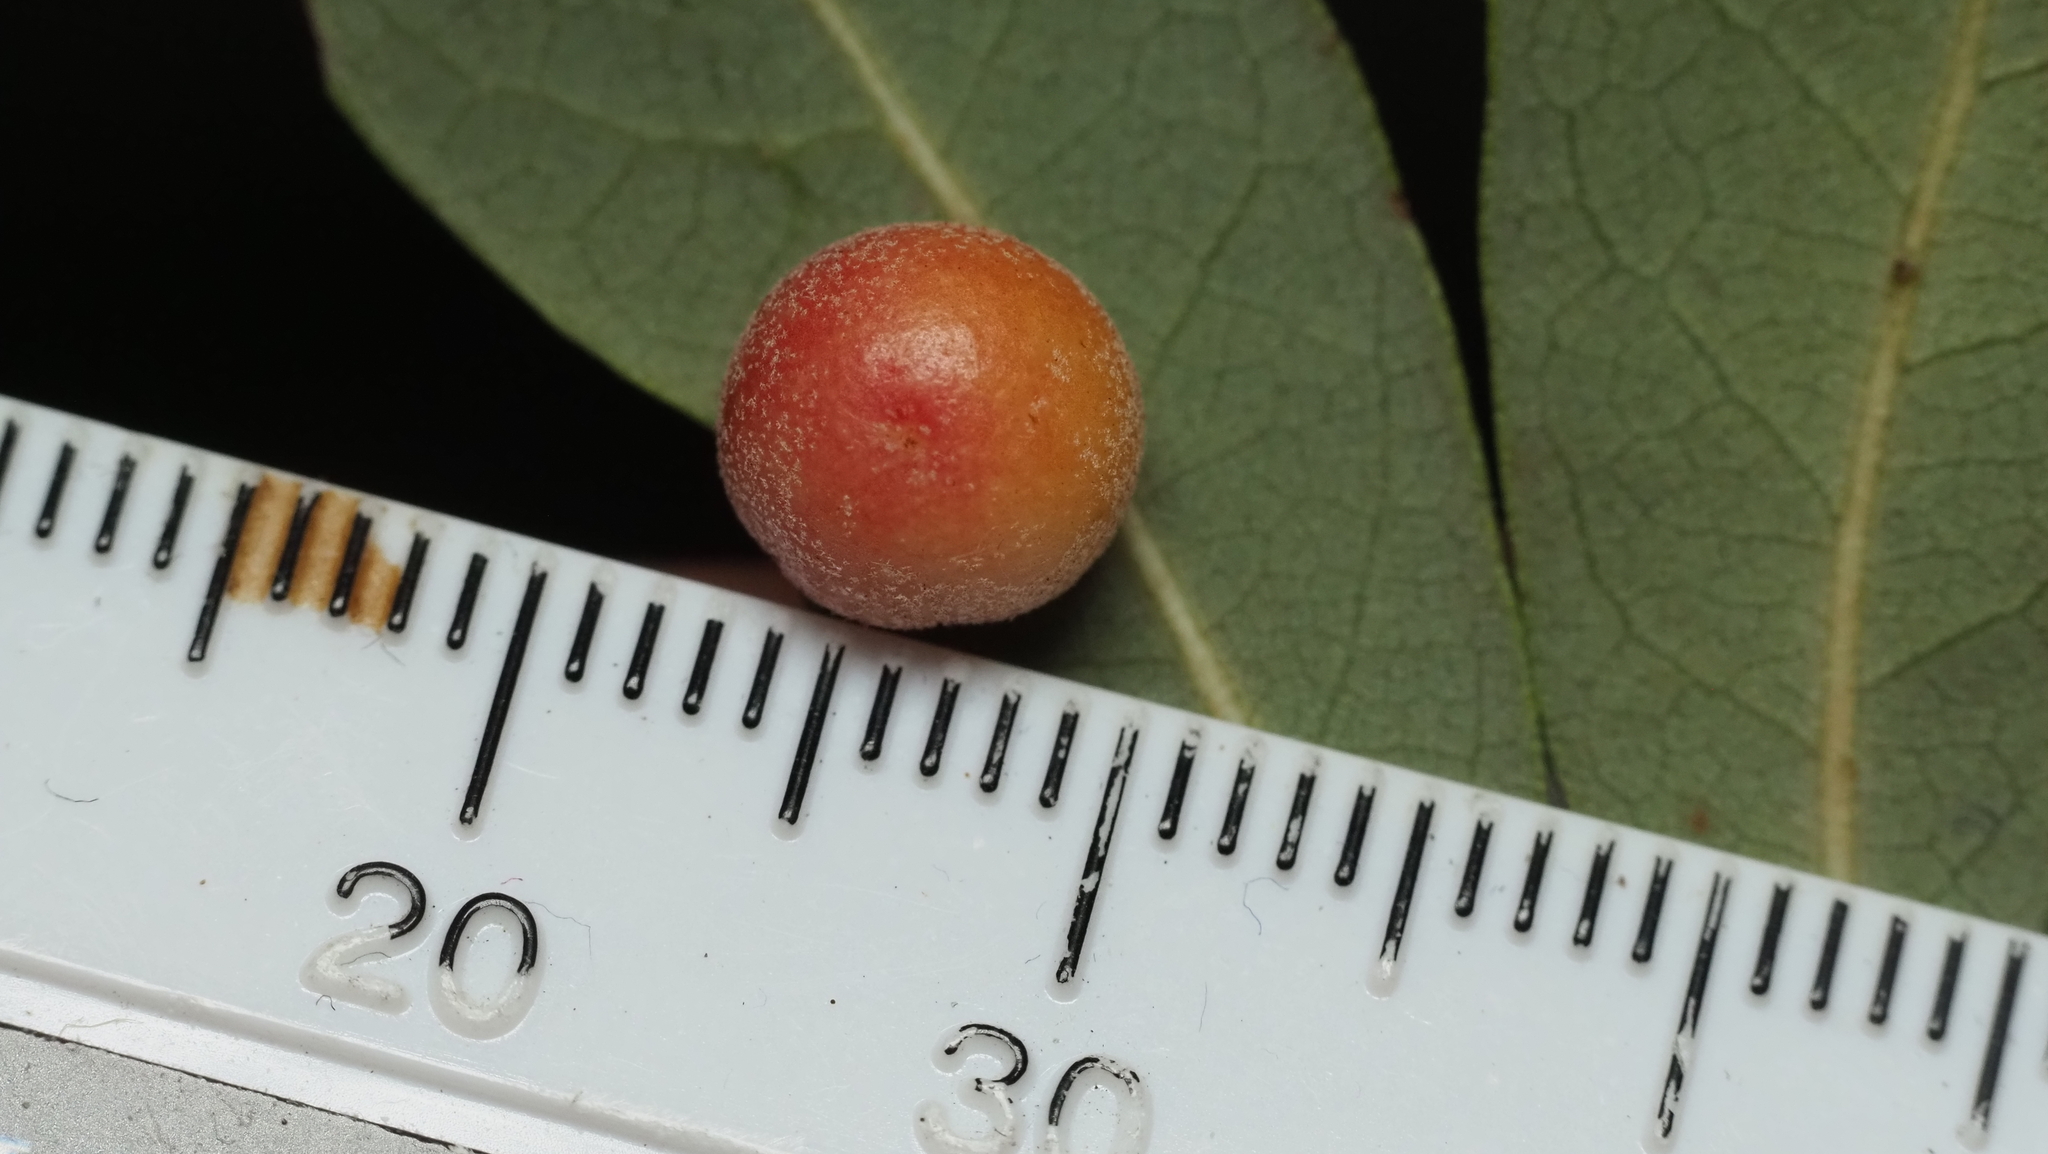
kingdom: Animalia
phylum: Arthropoda
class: Insecta
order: Hymenoptera
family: Cynipidae
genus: Belonocnema
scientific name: Belonocnema kinseyi
